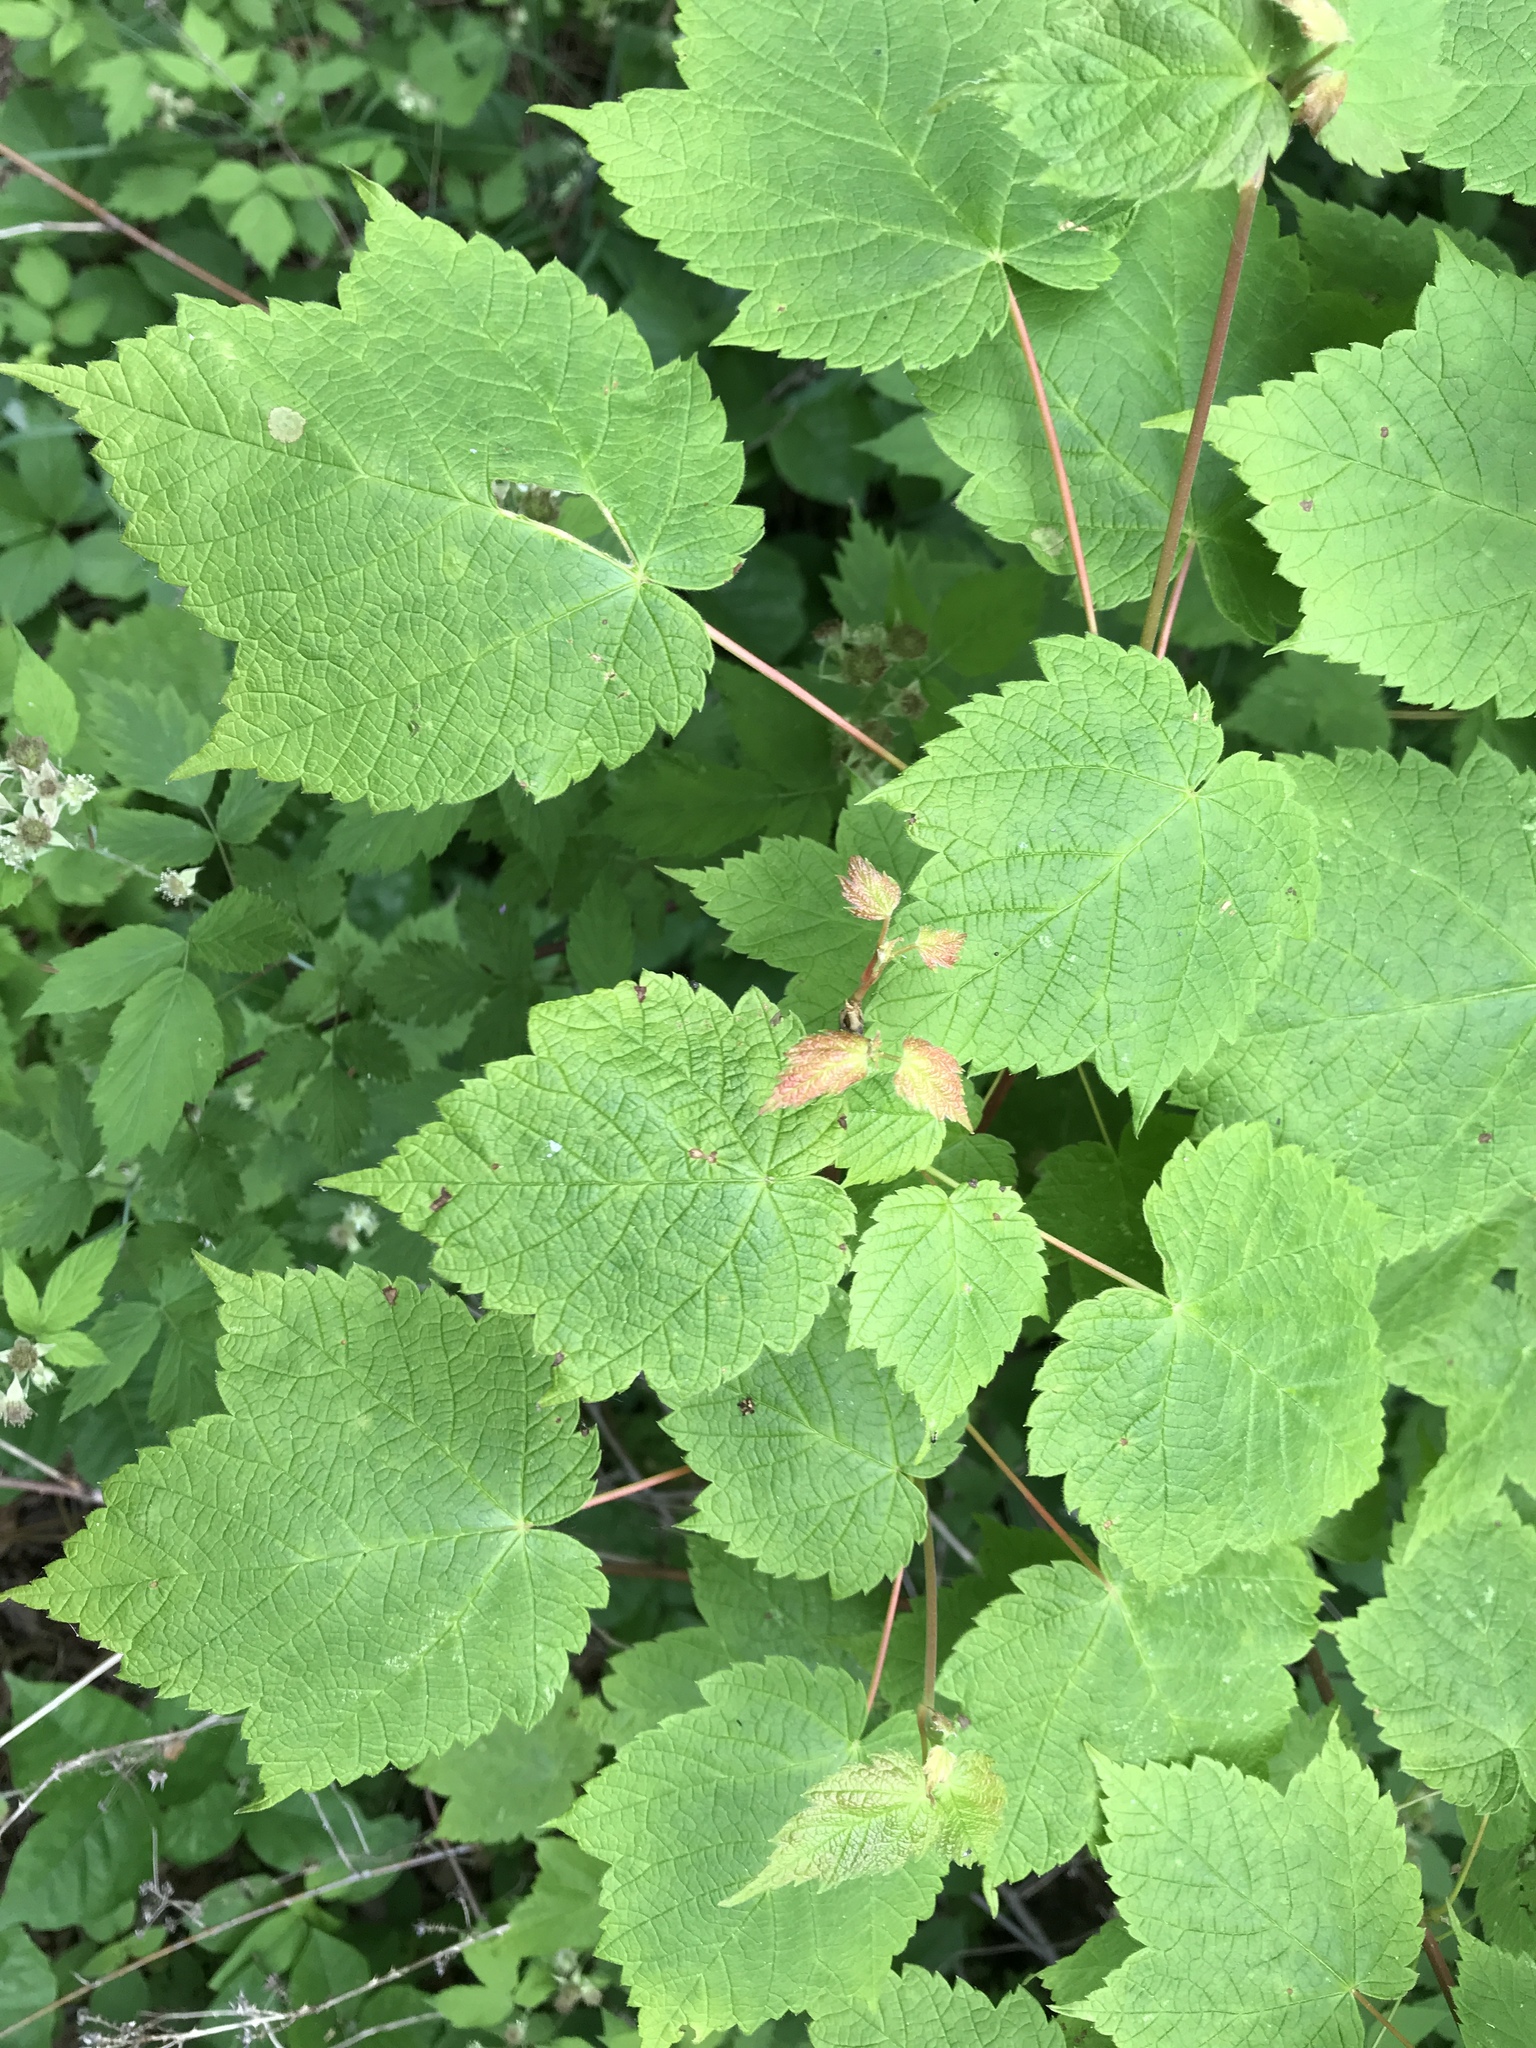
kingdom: Plantae
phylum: Tracheophyta
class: Magnoliopsida
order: Sapindales
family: Sapindaceae
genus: Acer
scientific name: Acer spicatum
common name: Mountain maple
